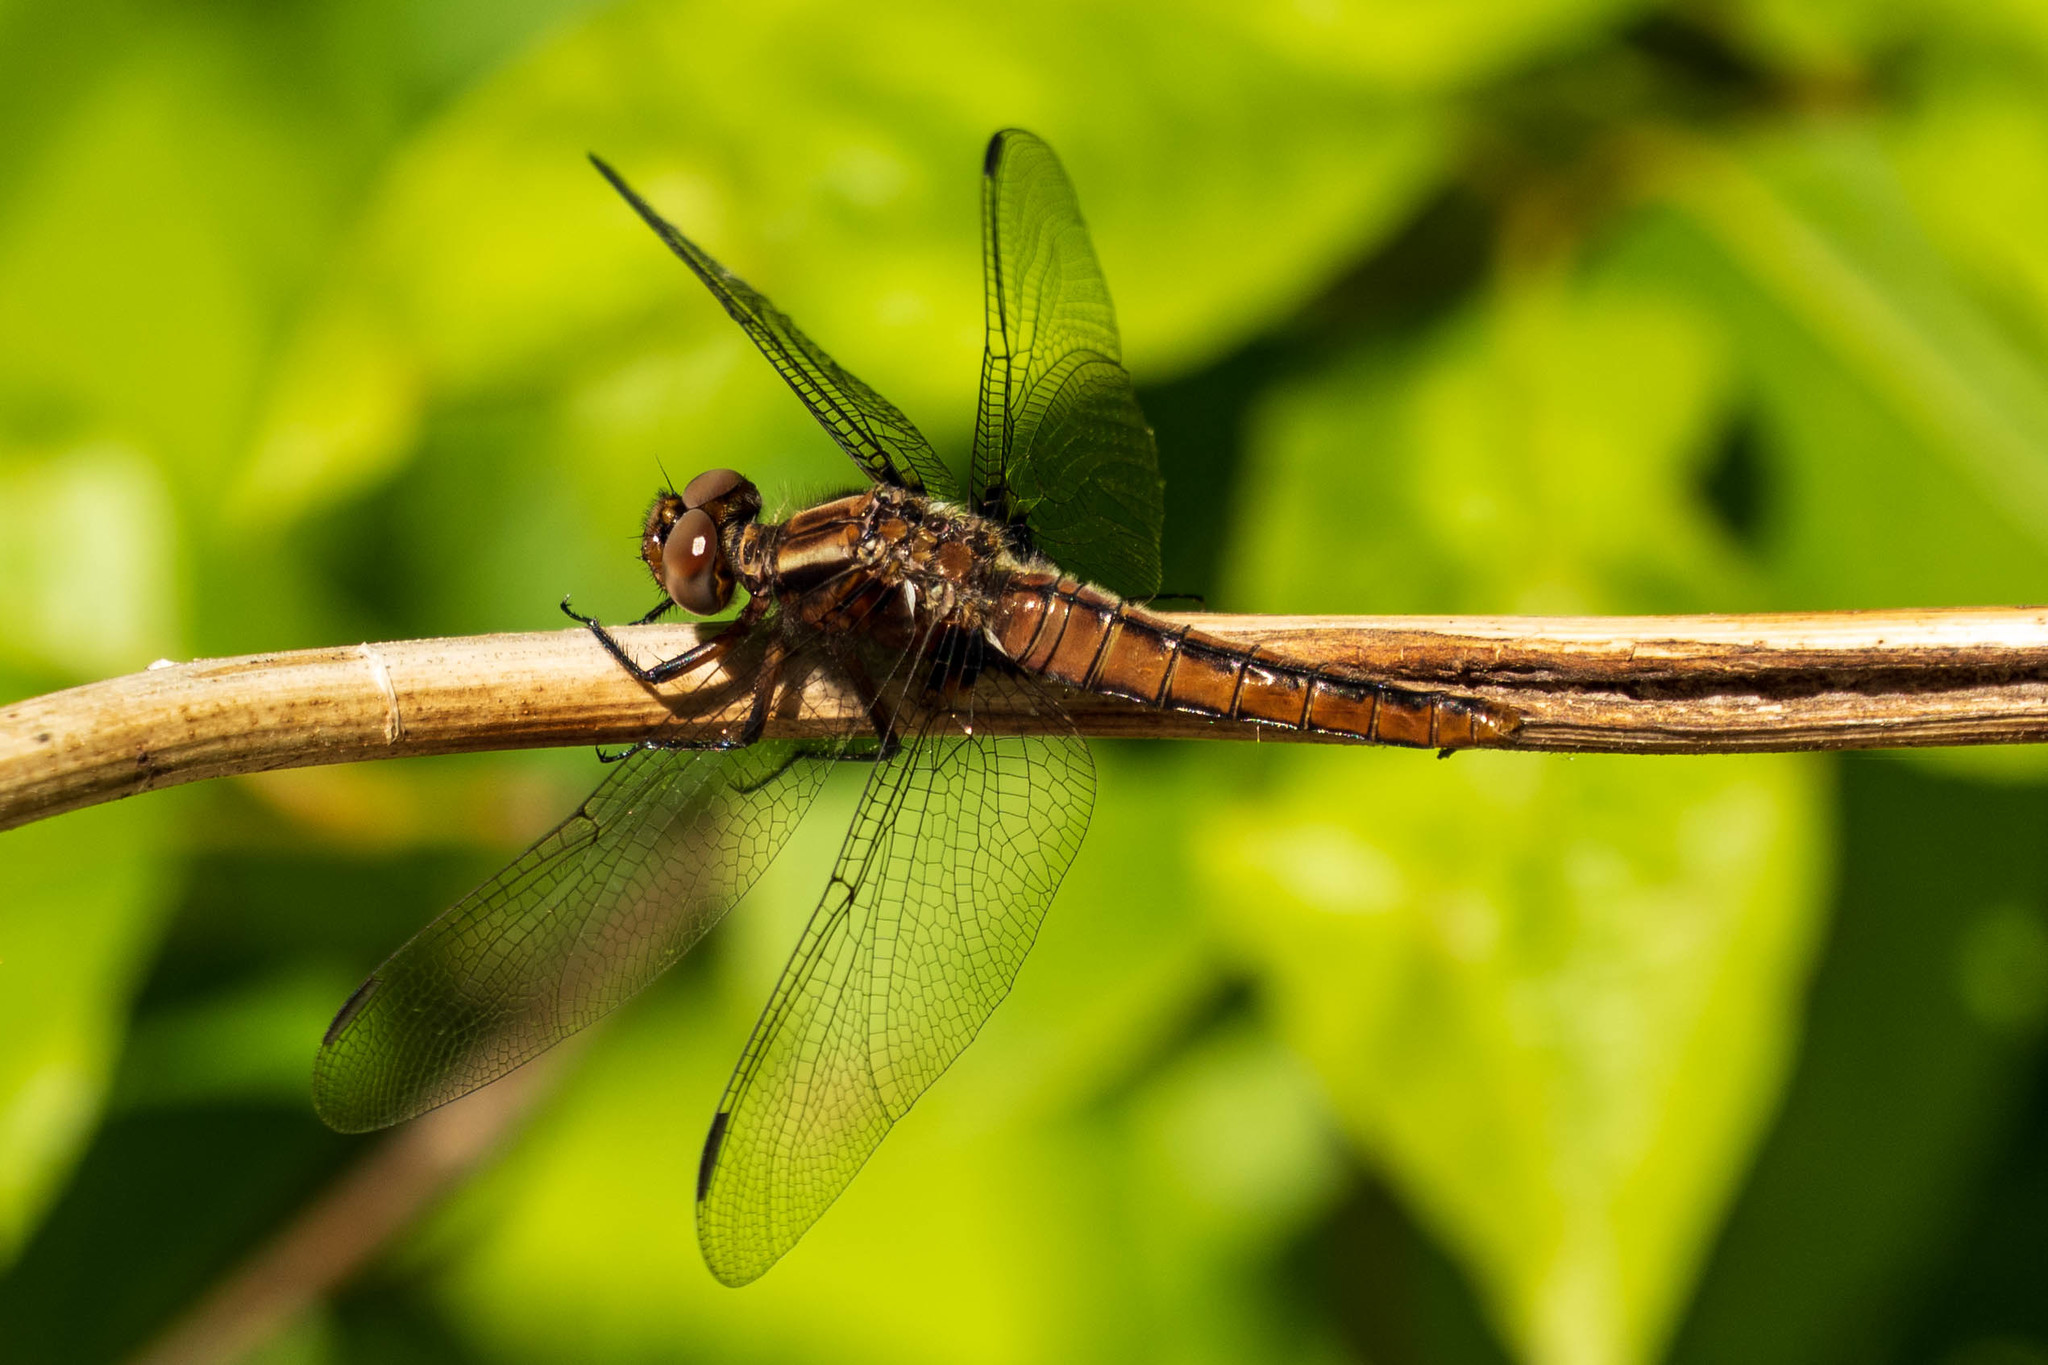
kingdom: Animalia
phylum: Arthropoda
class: Insecta
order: Odonata
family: Libellulidae
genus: Ladona
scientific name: Ladona julia
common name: Chalk-fronted corporal
